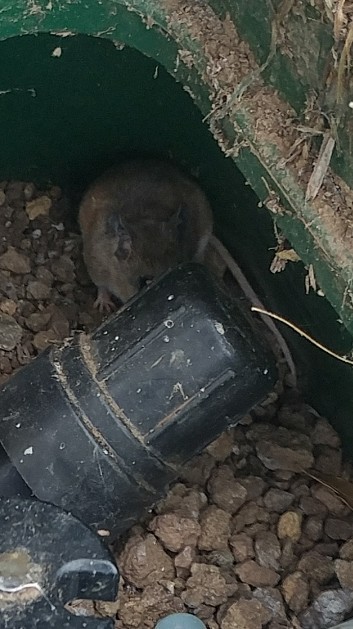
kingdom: Animalia
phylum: Chordata
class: Mammalia
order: Rodentia
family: Cricetidae
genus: Peromyscus
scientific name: Peromyscus maniculatus
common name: Deer mouse
